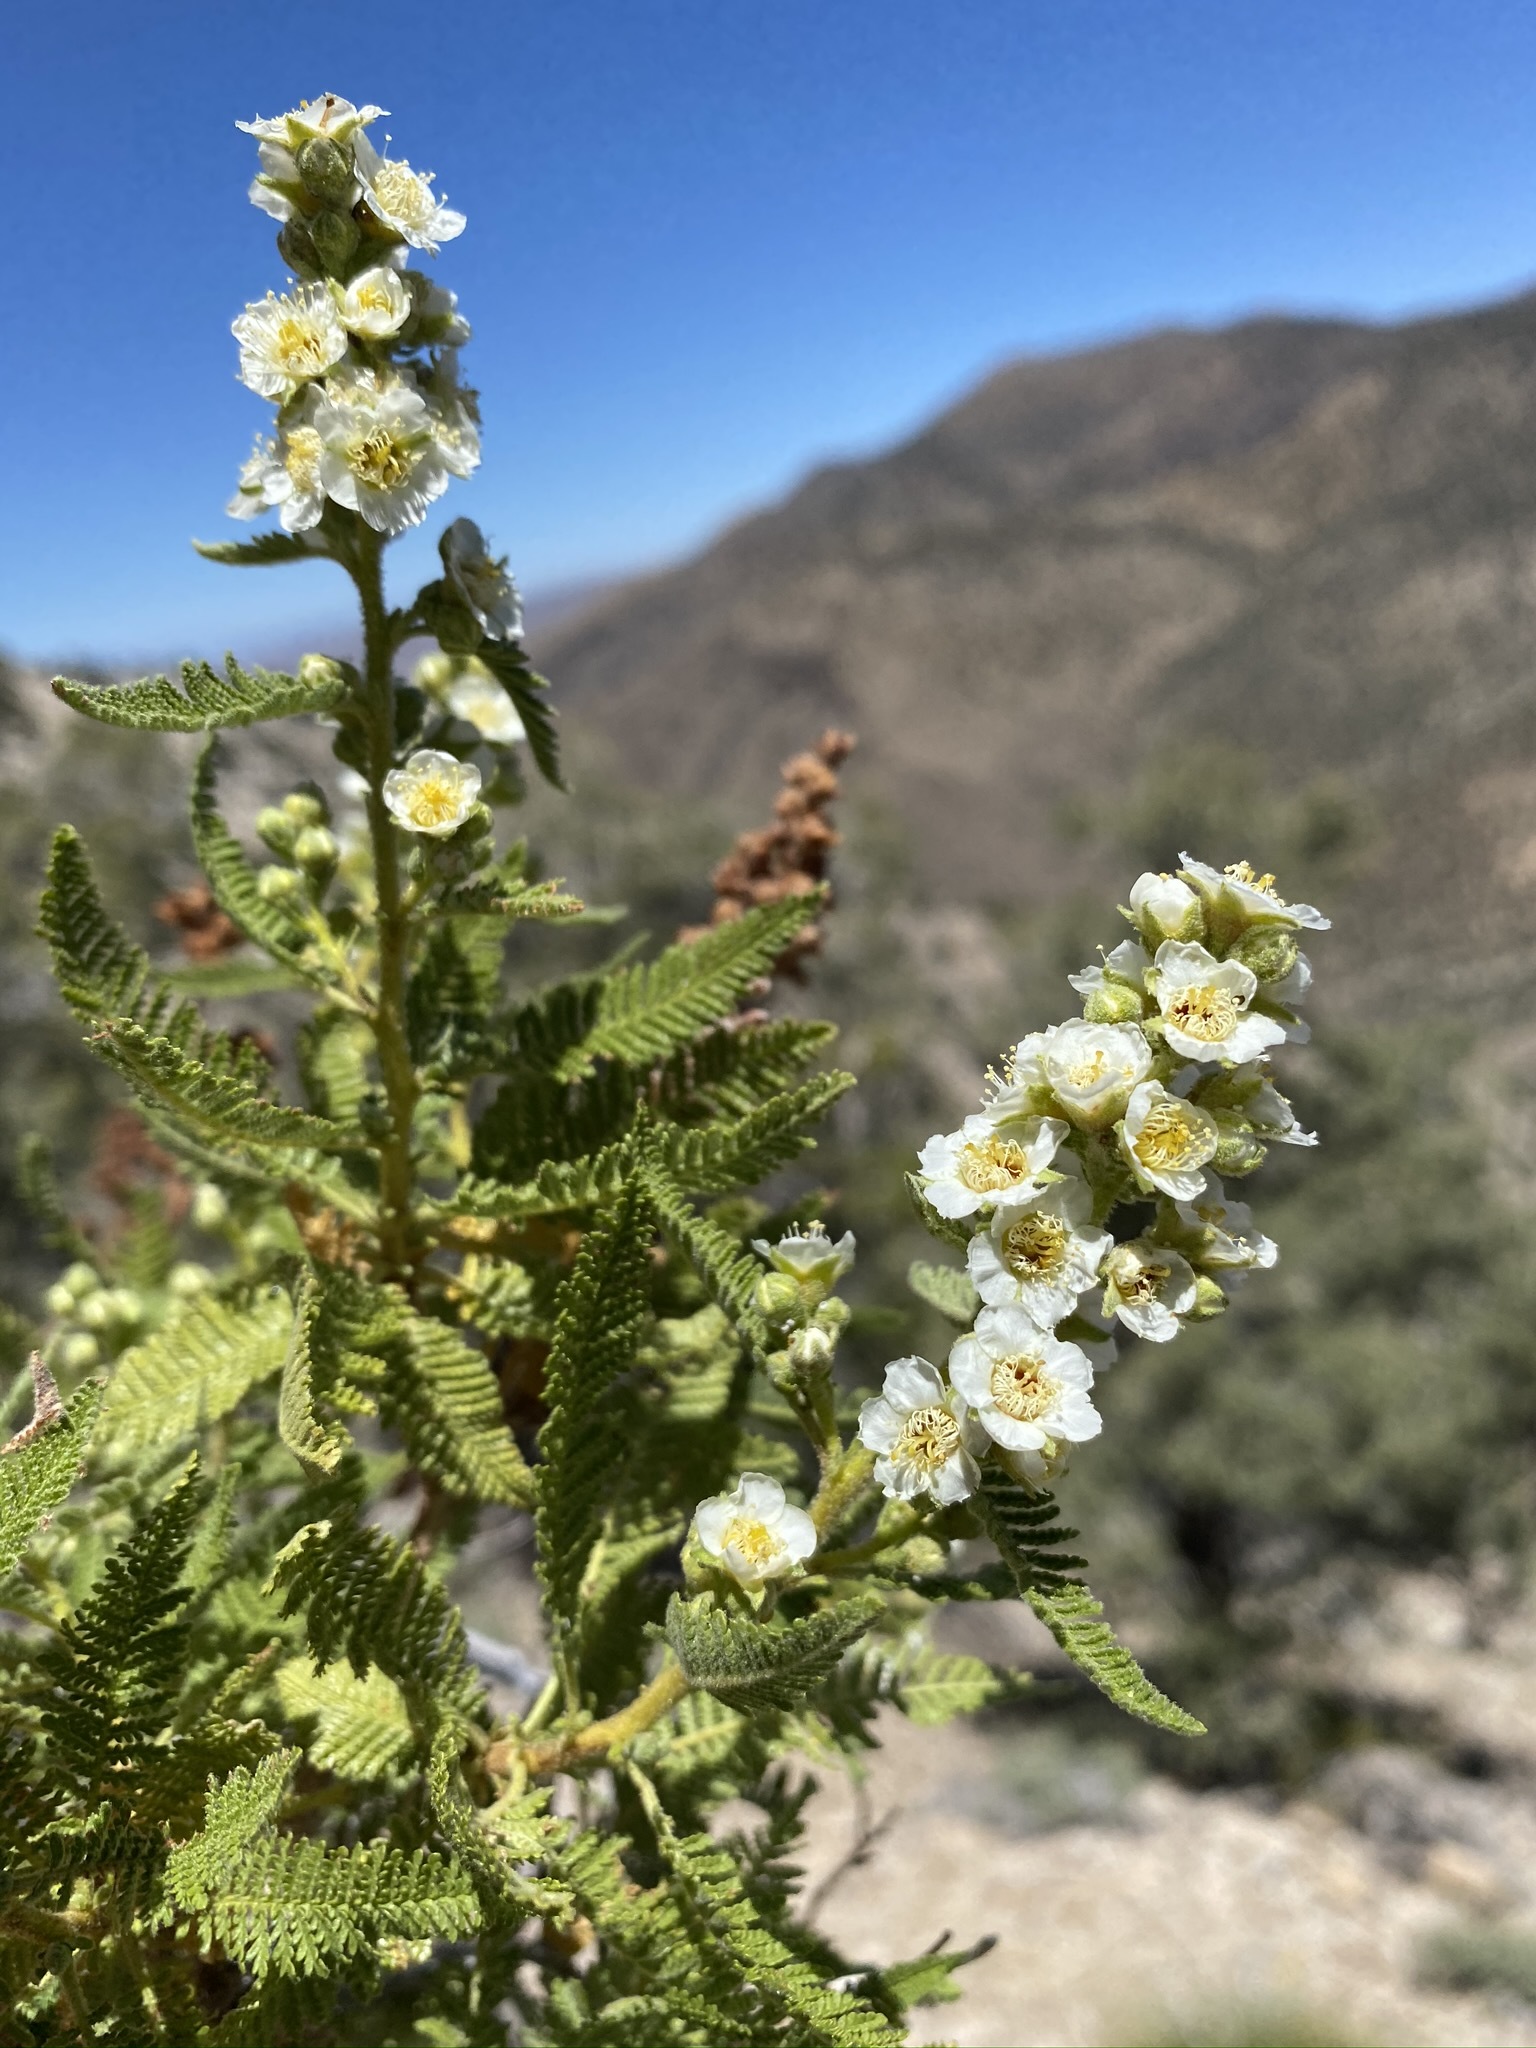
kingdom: Plantae
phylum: Tracheophyta
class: Magnoliopsida
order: Rosales
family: Rosaceae
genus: Chamaebatiaria
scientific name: Chamaebatiaria millefolium
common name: Fernbush
